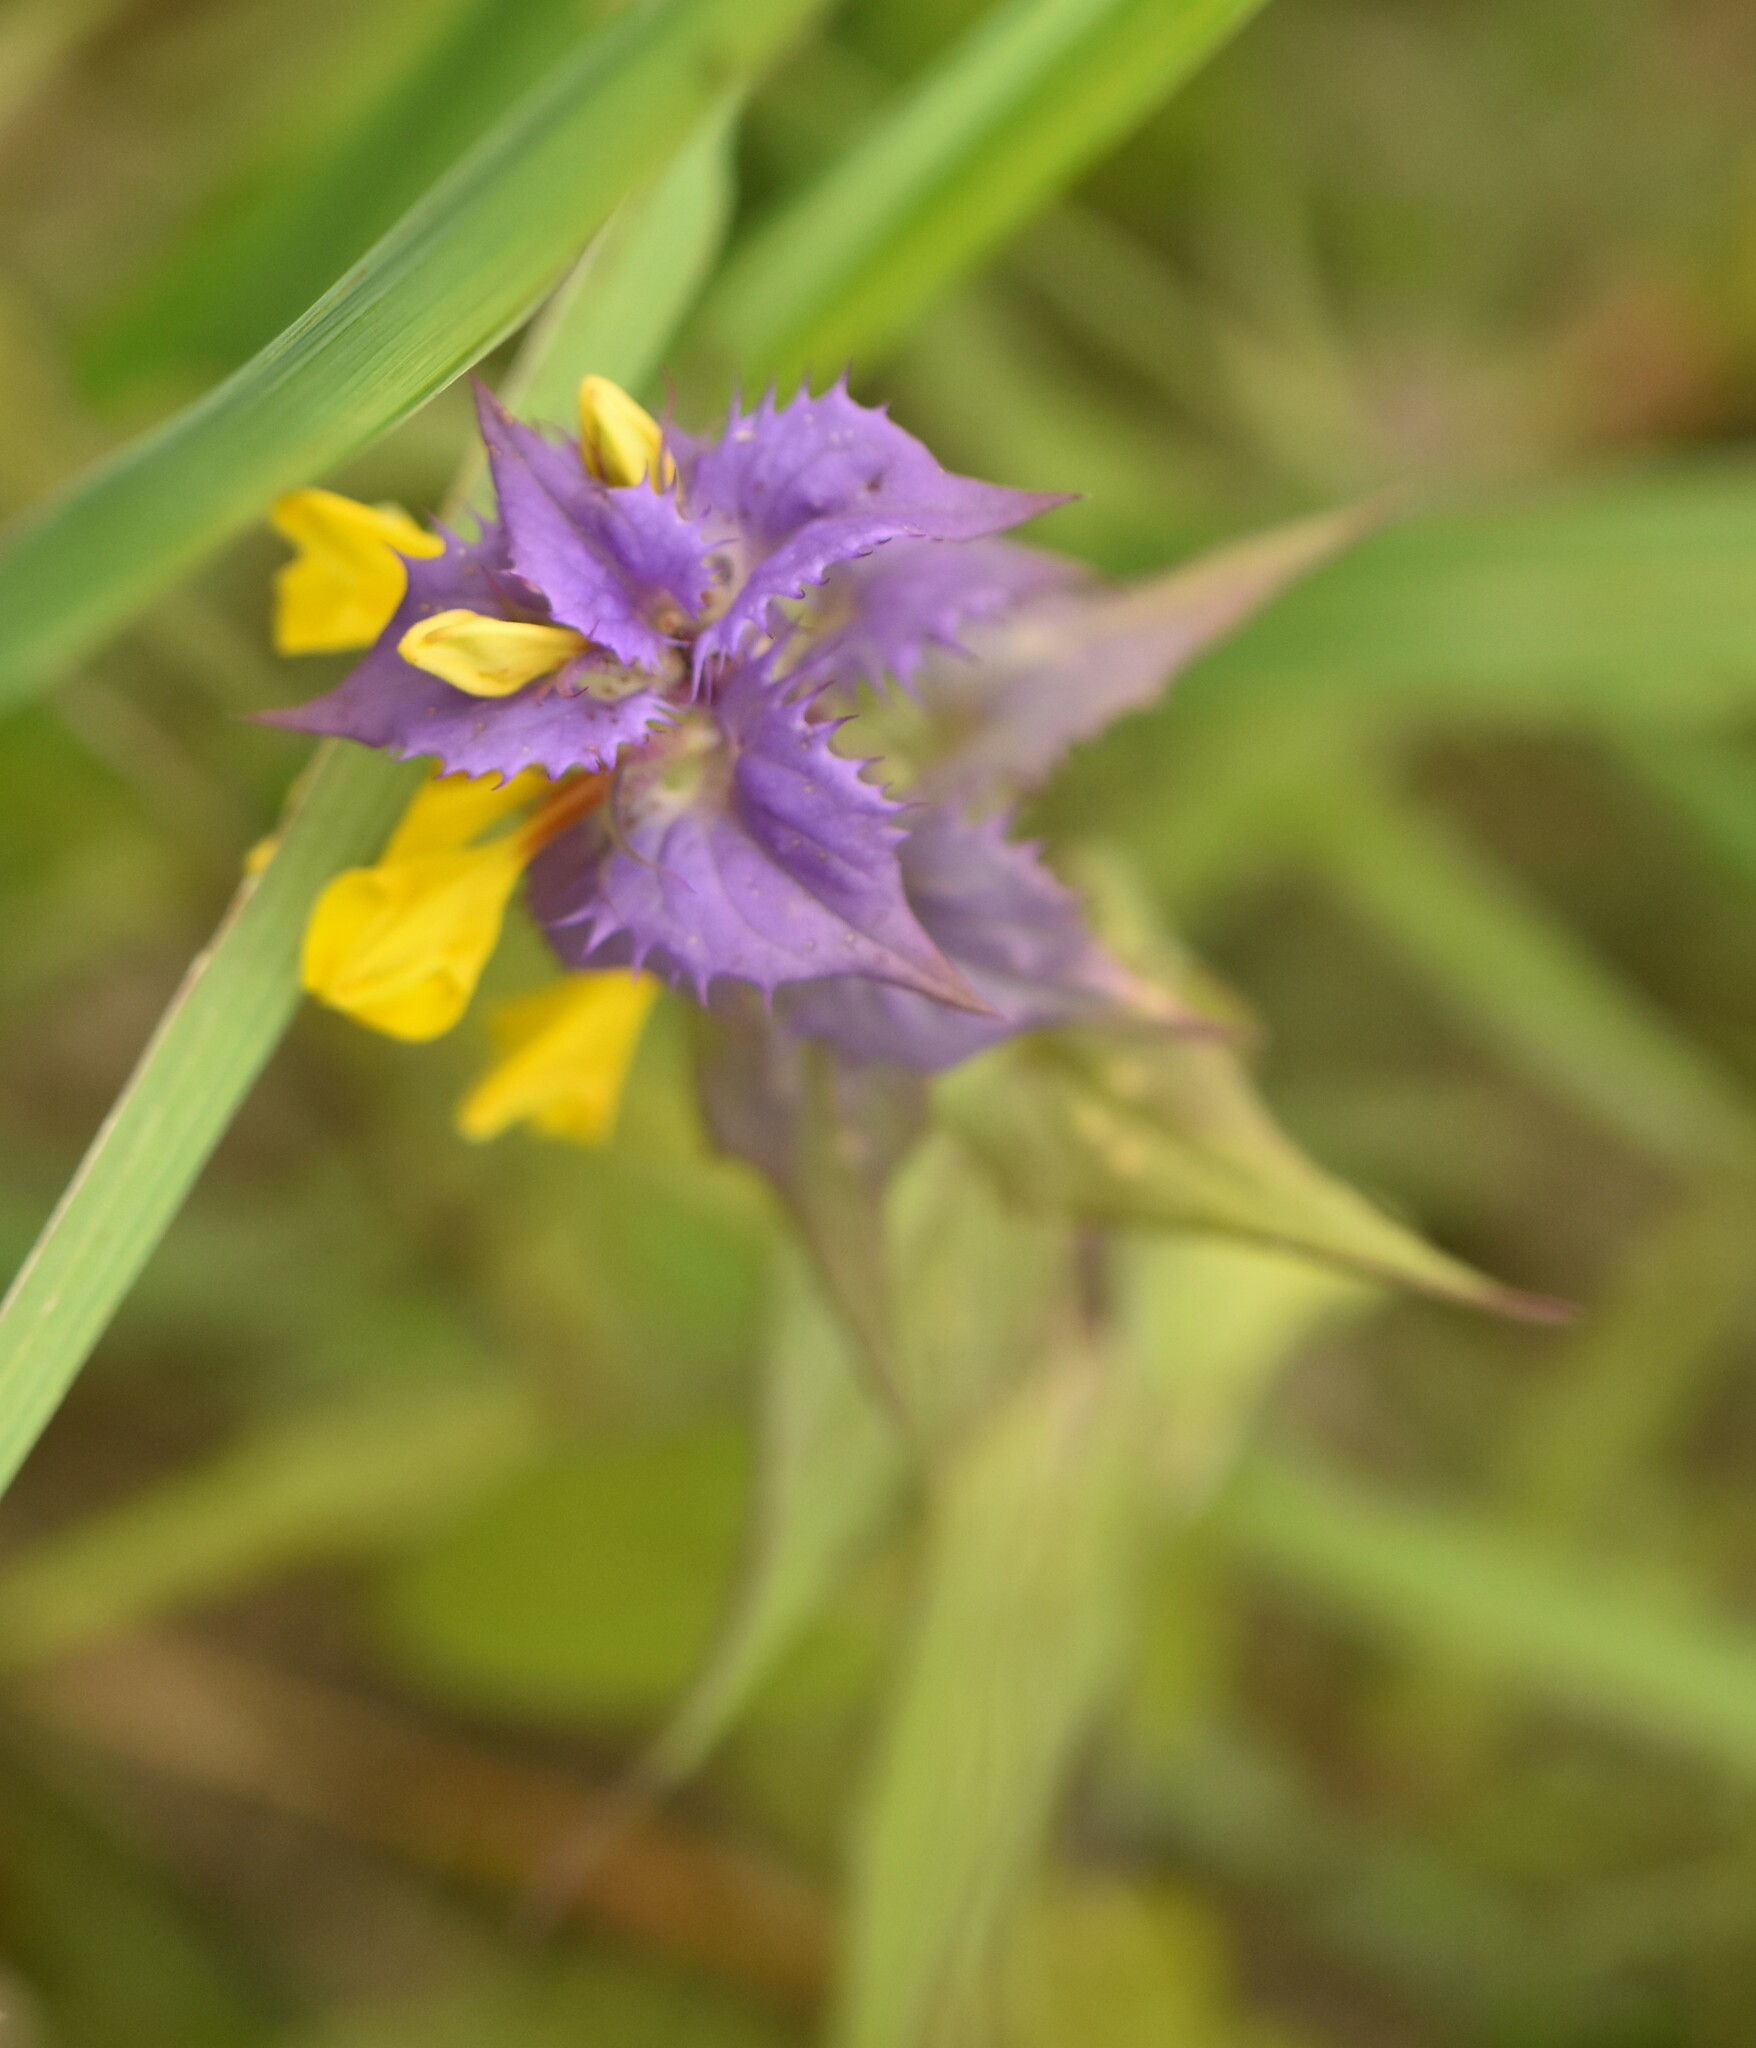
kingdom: Plantae
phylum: Tracheophyta
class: Magnoliopsida
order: Lamiales
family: Orobanchaceae
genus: Melampyrum
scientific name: Melampyrum nemorosum
